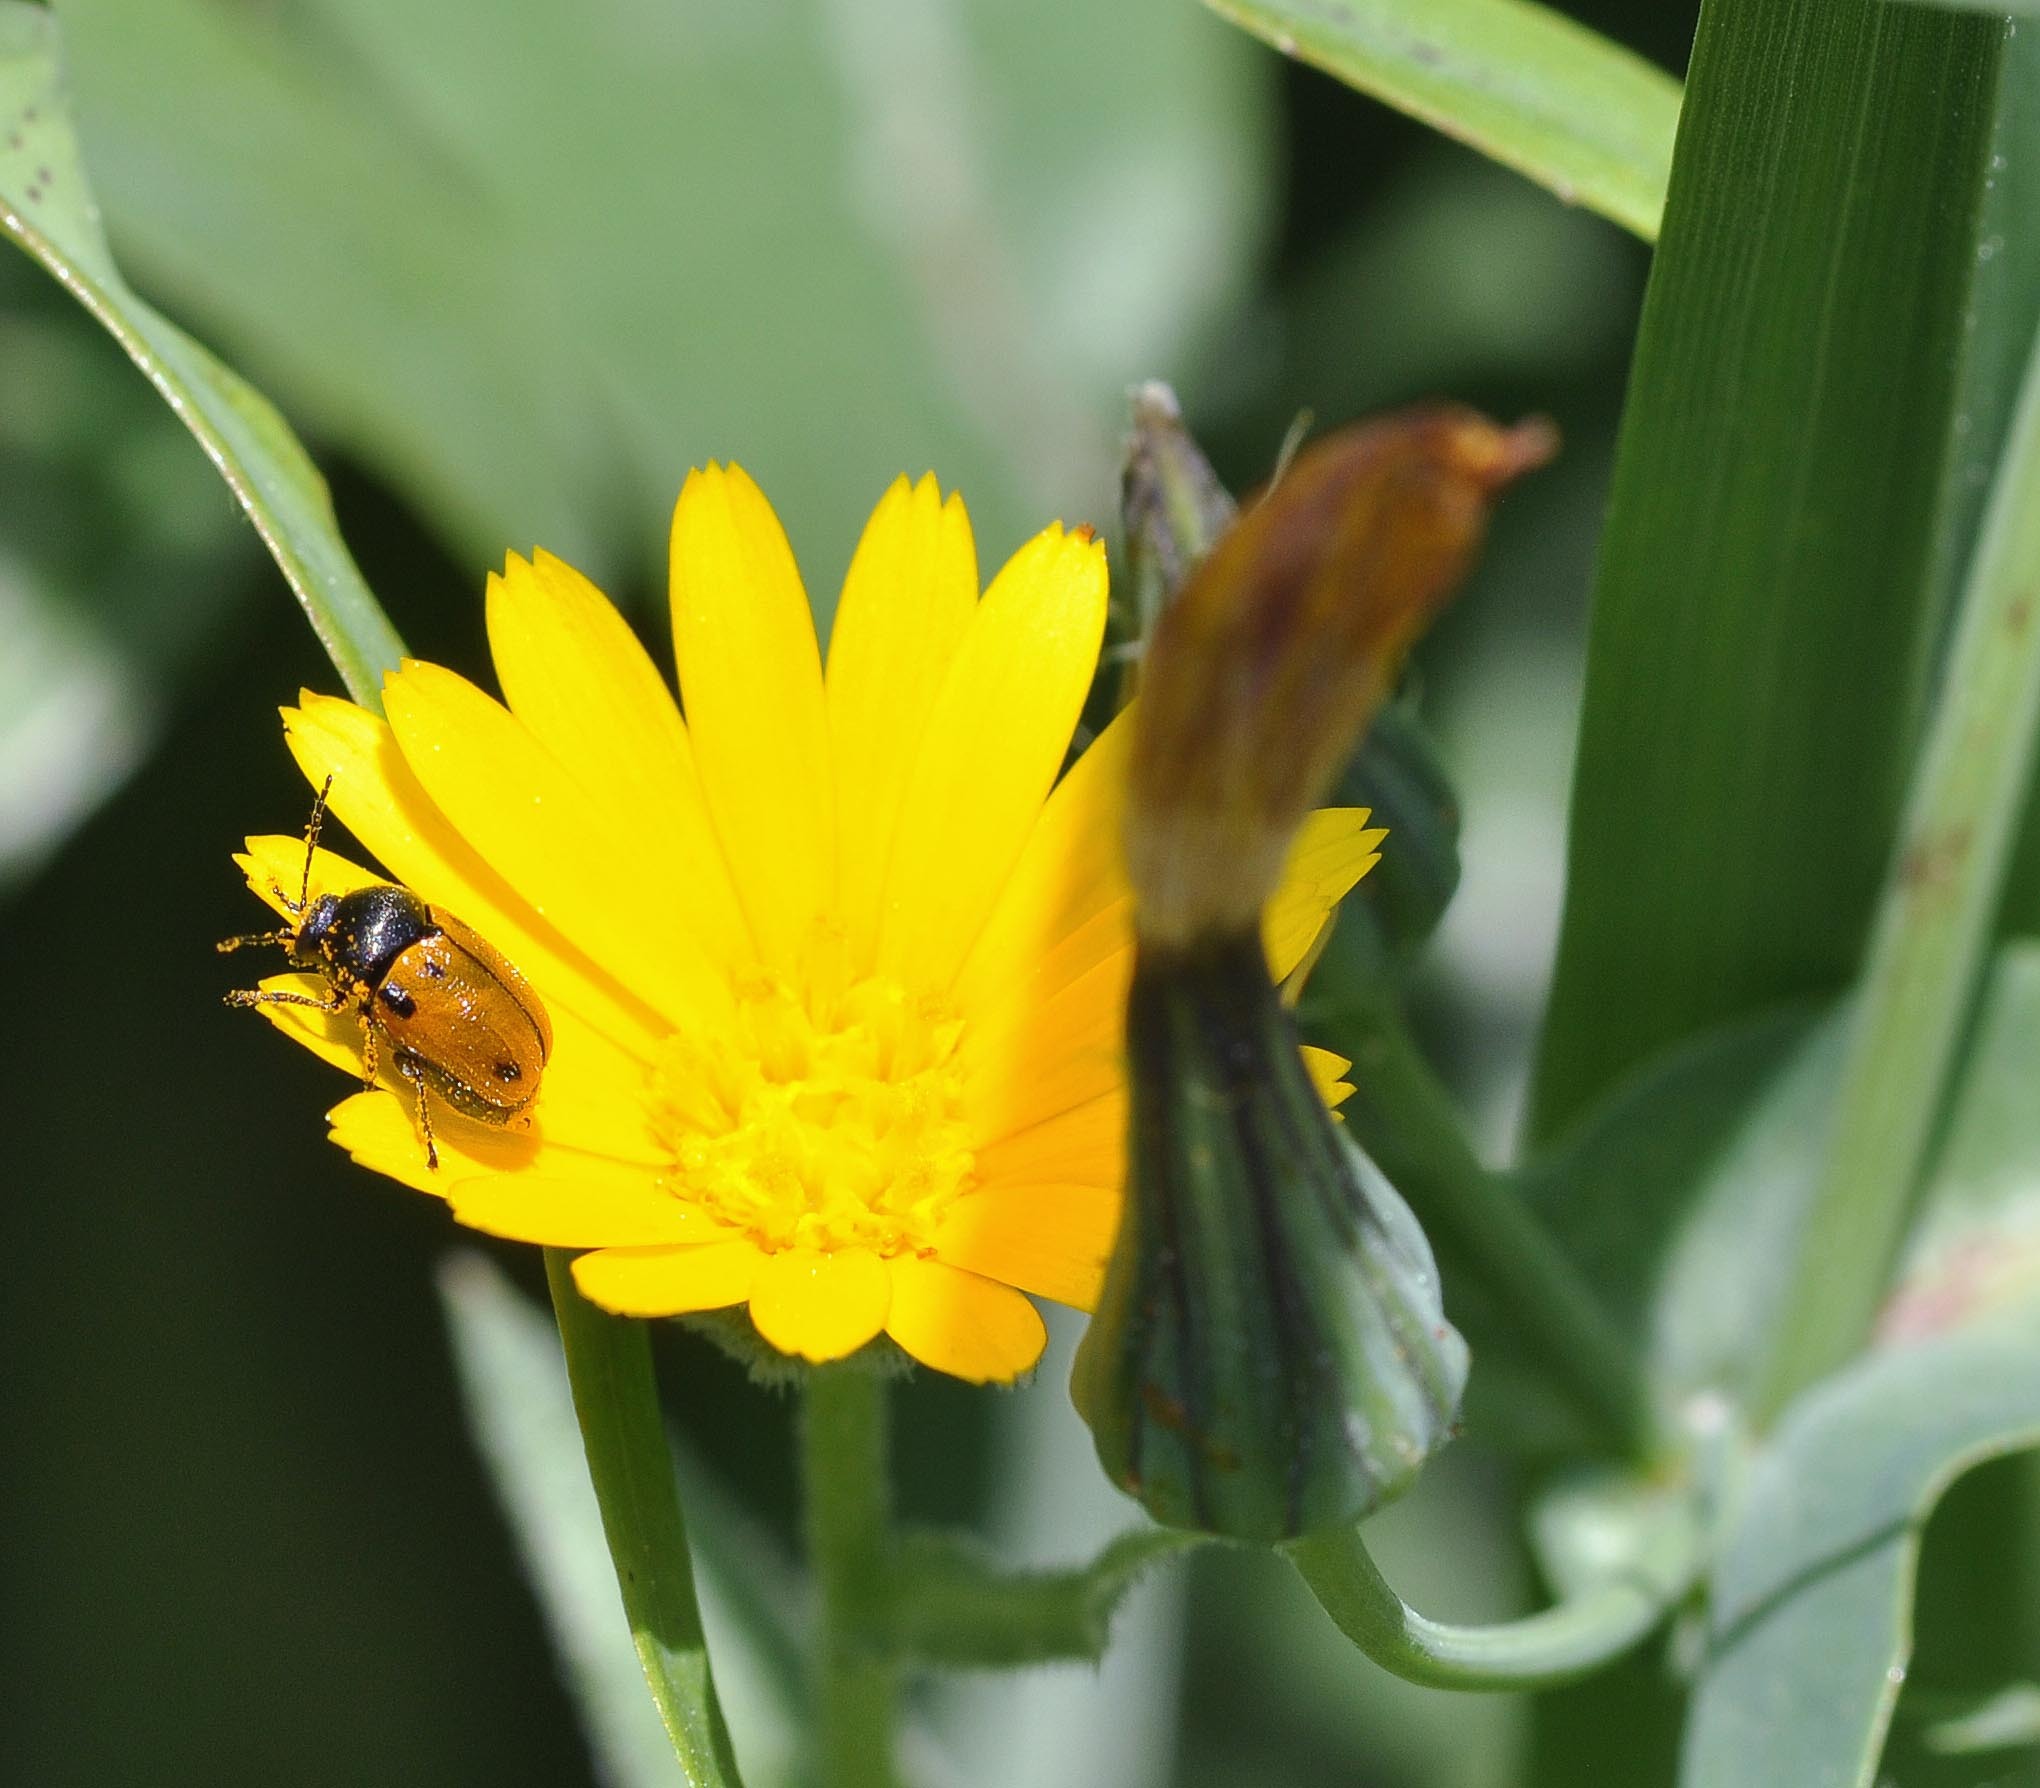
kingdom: Animalia
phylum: Arthropoda
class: Insecta
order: Coleoptera
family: Chrysomelidae
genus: Cryptocephalus
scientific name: Cryptocephalus rugicollis
